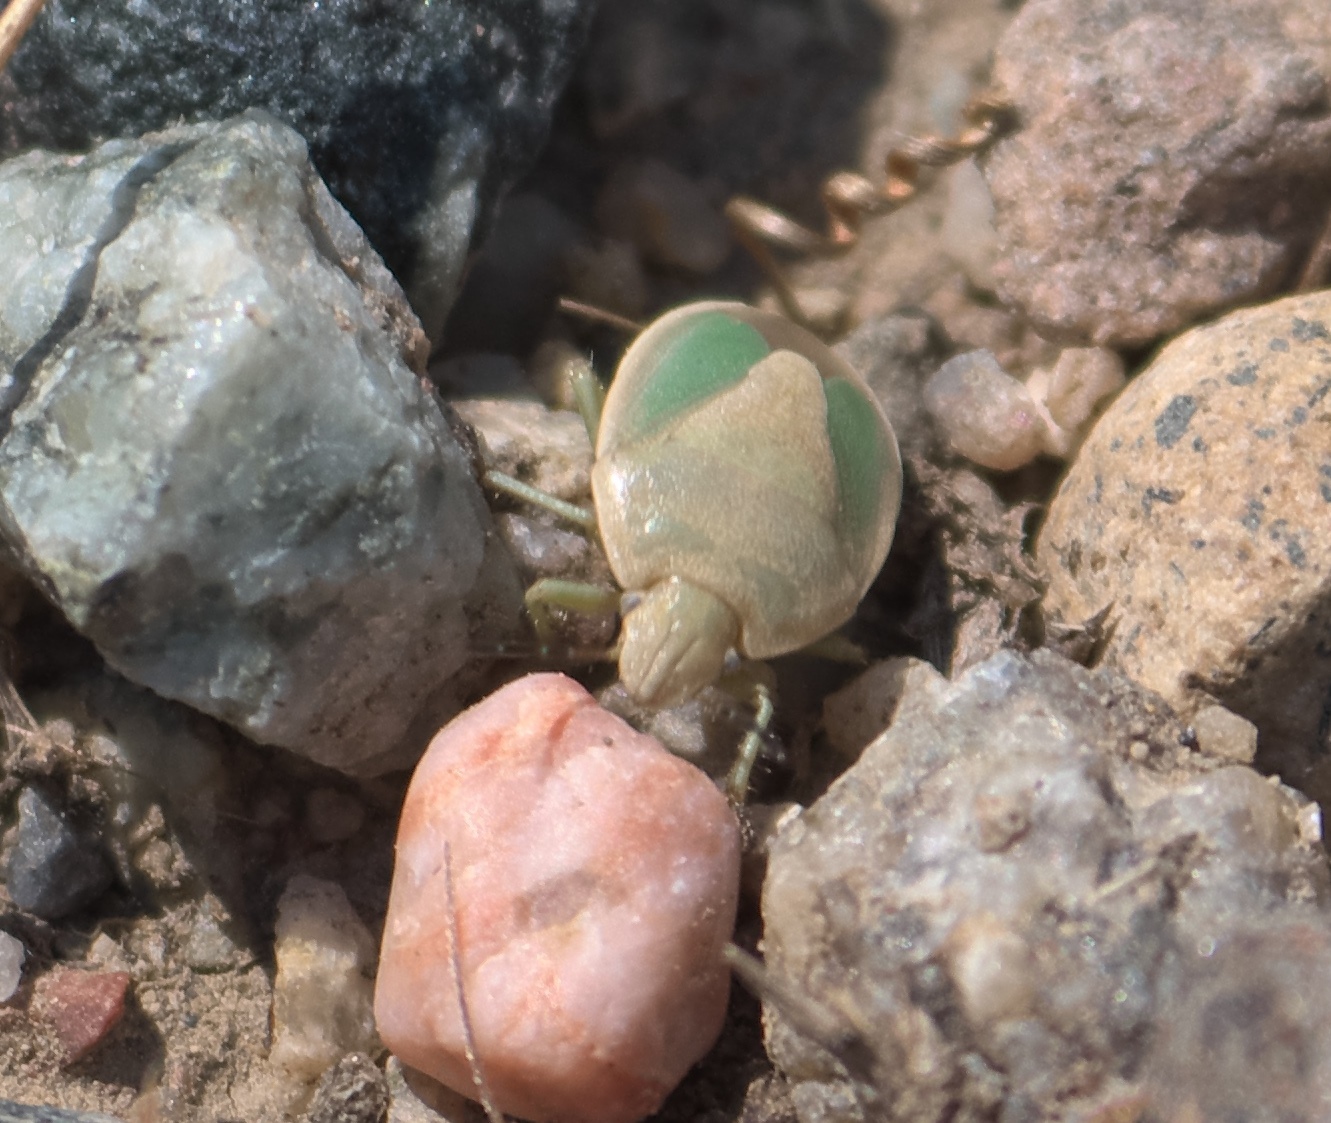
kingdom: Animalia
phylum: Arthropoda
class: Insecta
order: Hemiptera
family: Pentatomidae
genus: Chlorochroa
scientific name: Chlorochroa viridicata
